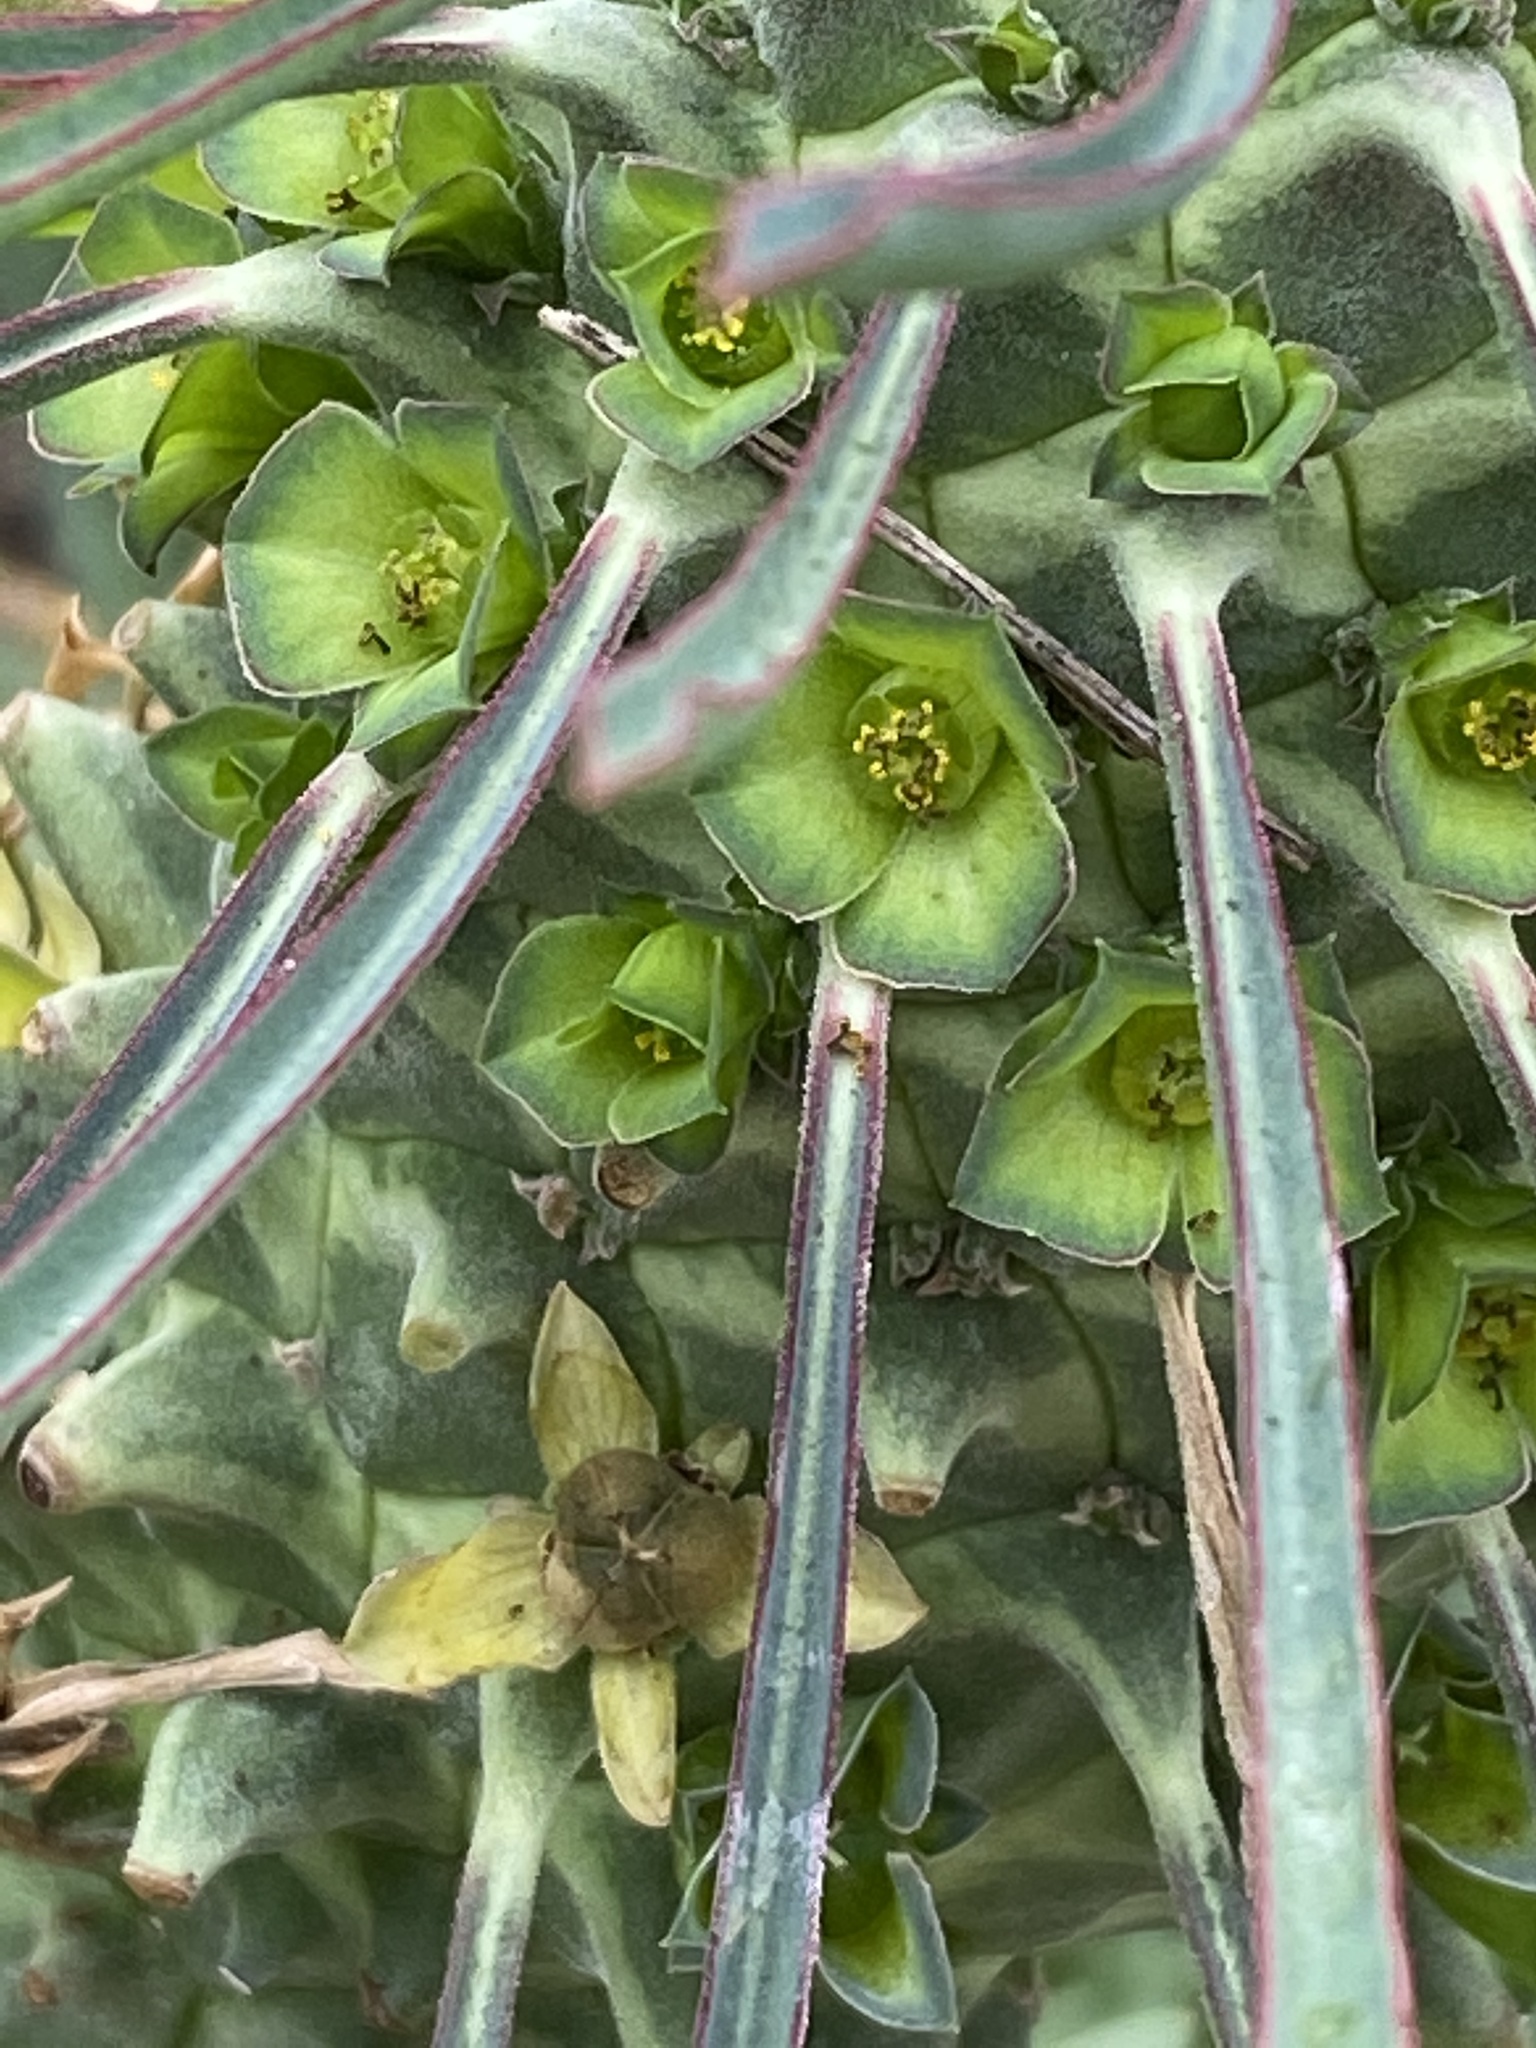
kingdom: Plantae
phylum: Tracheophyta
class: Magnoliopsida
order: Malpighiales
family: Euphorbiaceae
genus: Euphorbia
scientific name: Euphorbia clandestina
